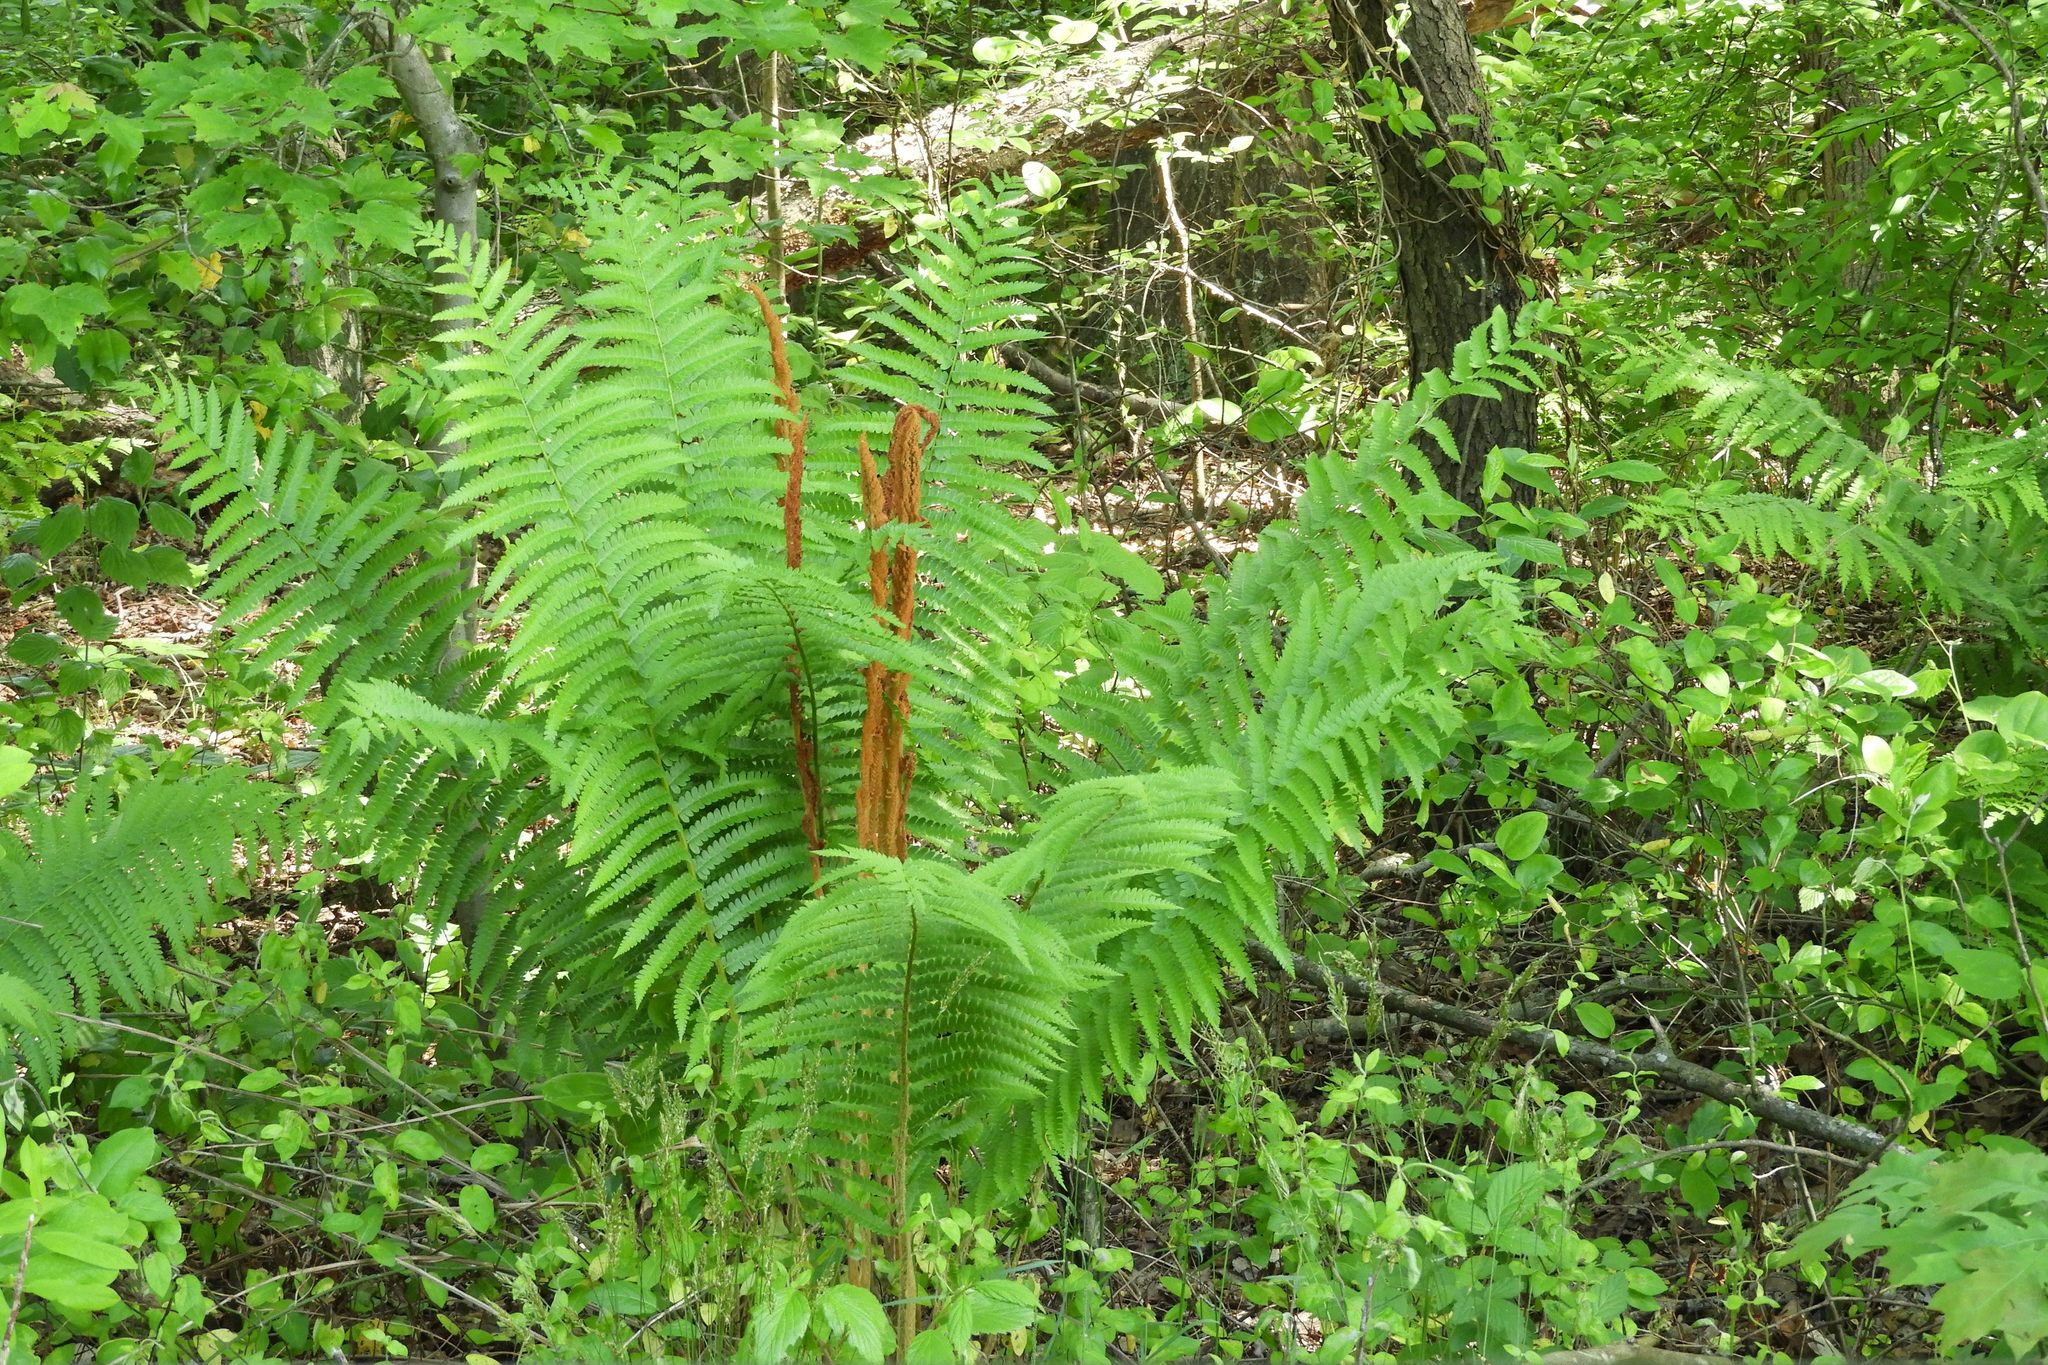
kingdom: Plantae
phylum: Tracheophyta
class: Polypodiopsida
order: Osmundales
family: Osmundaceae
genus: Osmundastrum
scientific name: Osmundastrum cinnamomeum
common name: Cinnamon fern
